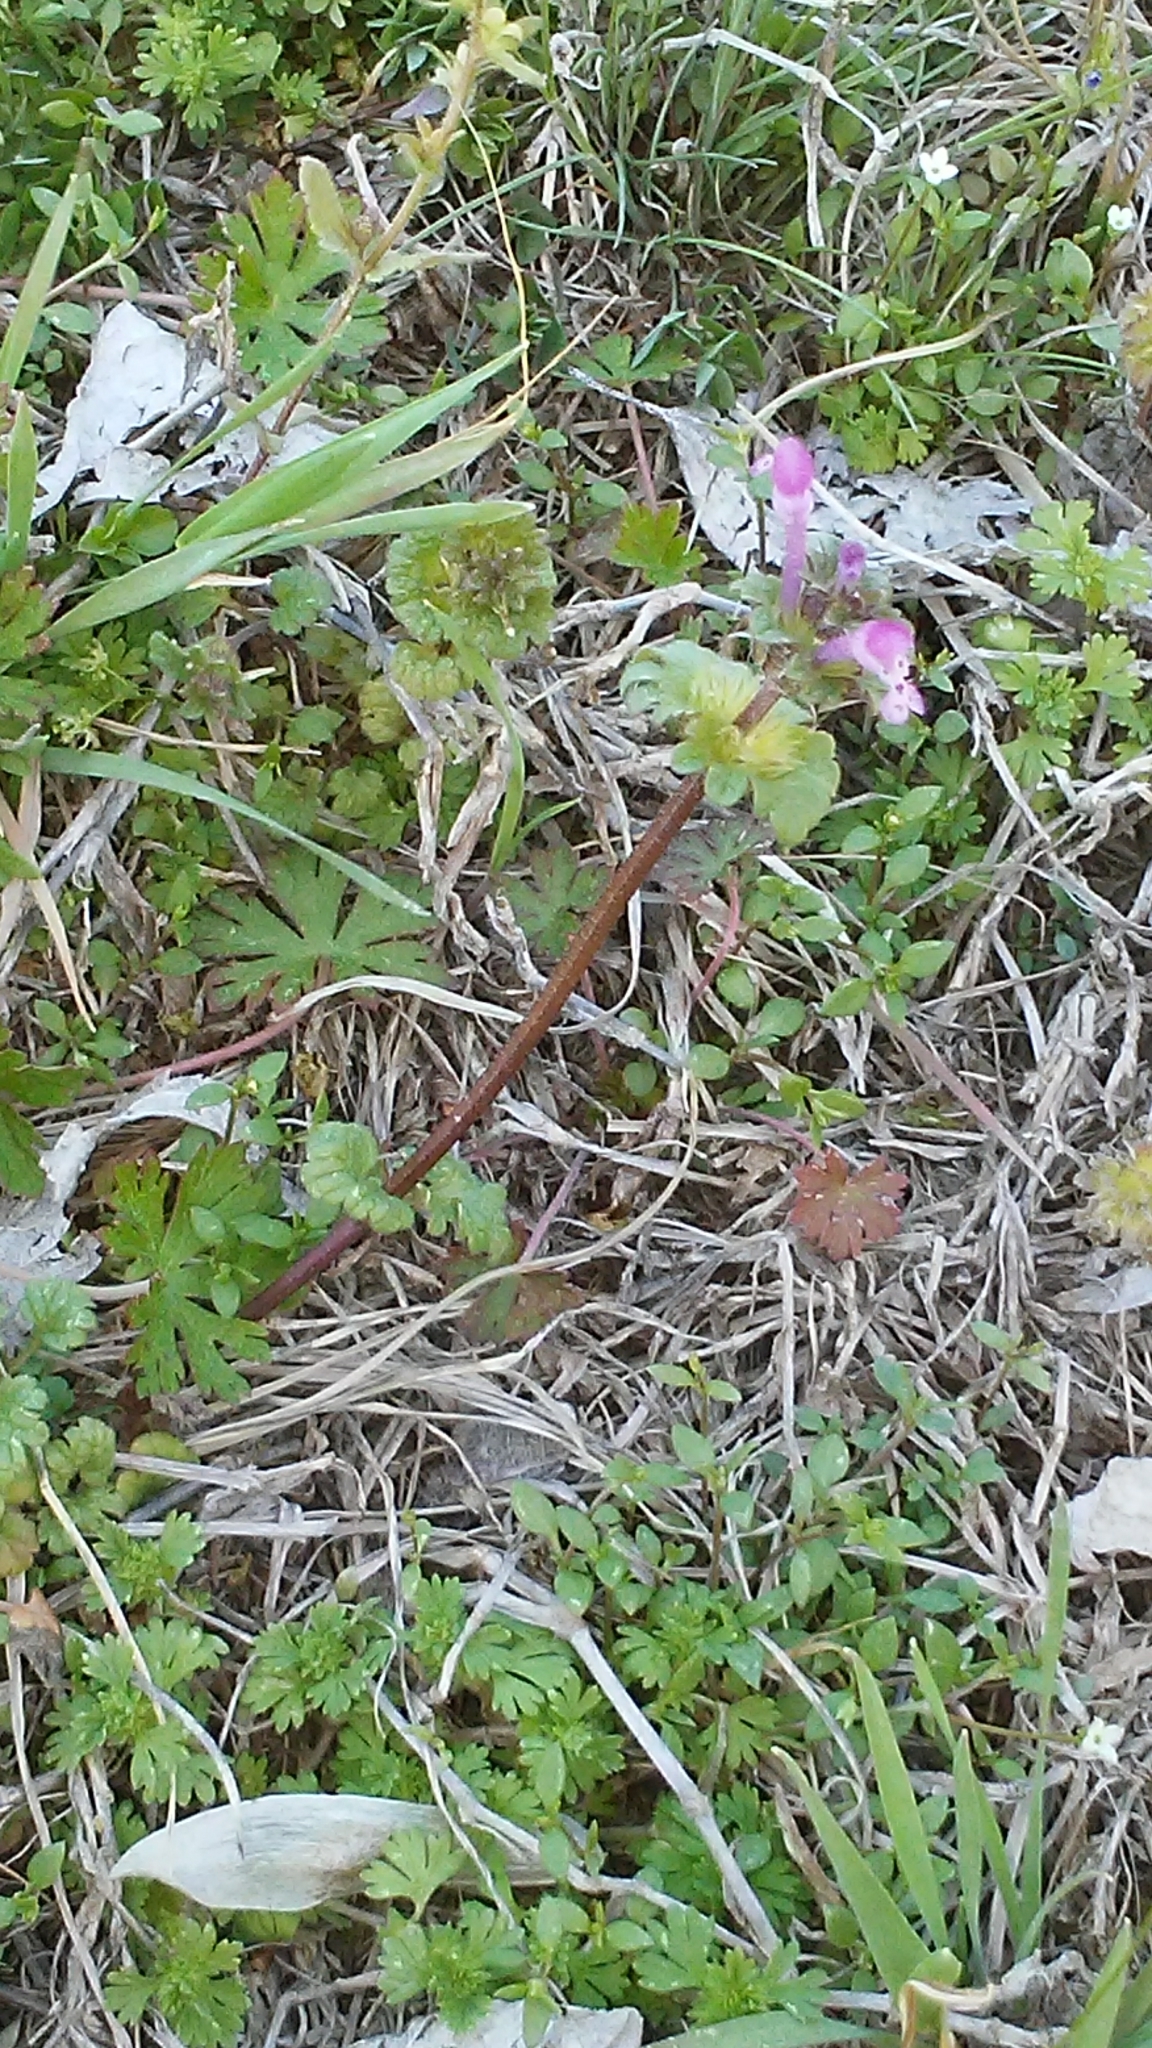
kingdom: Plantae
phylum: Tracheophyta
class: Magnoliopsida
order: Lamiales
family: Lamiaceae
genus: Lamium
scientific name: Lamium amplexicaule
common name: Henbit dead-nettle
